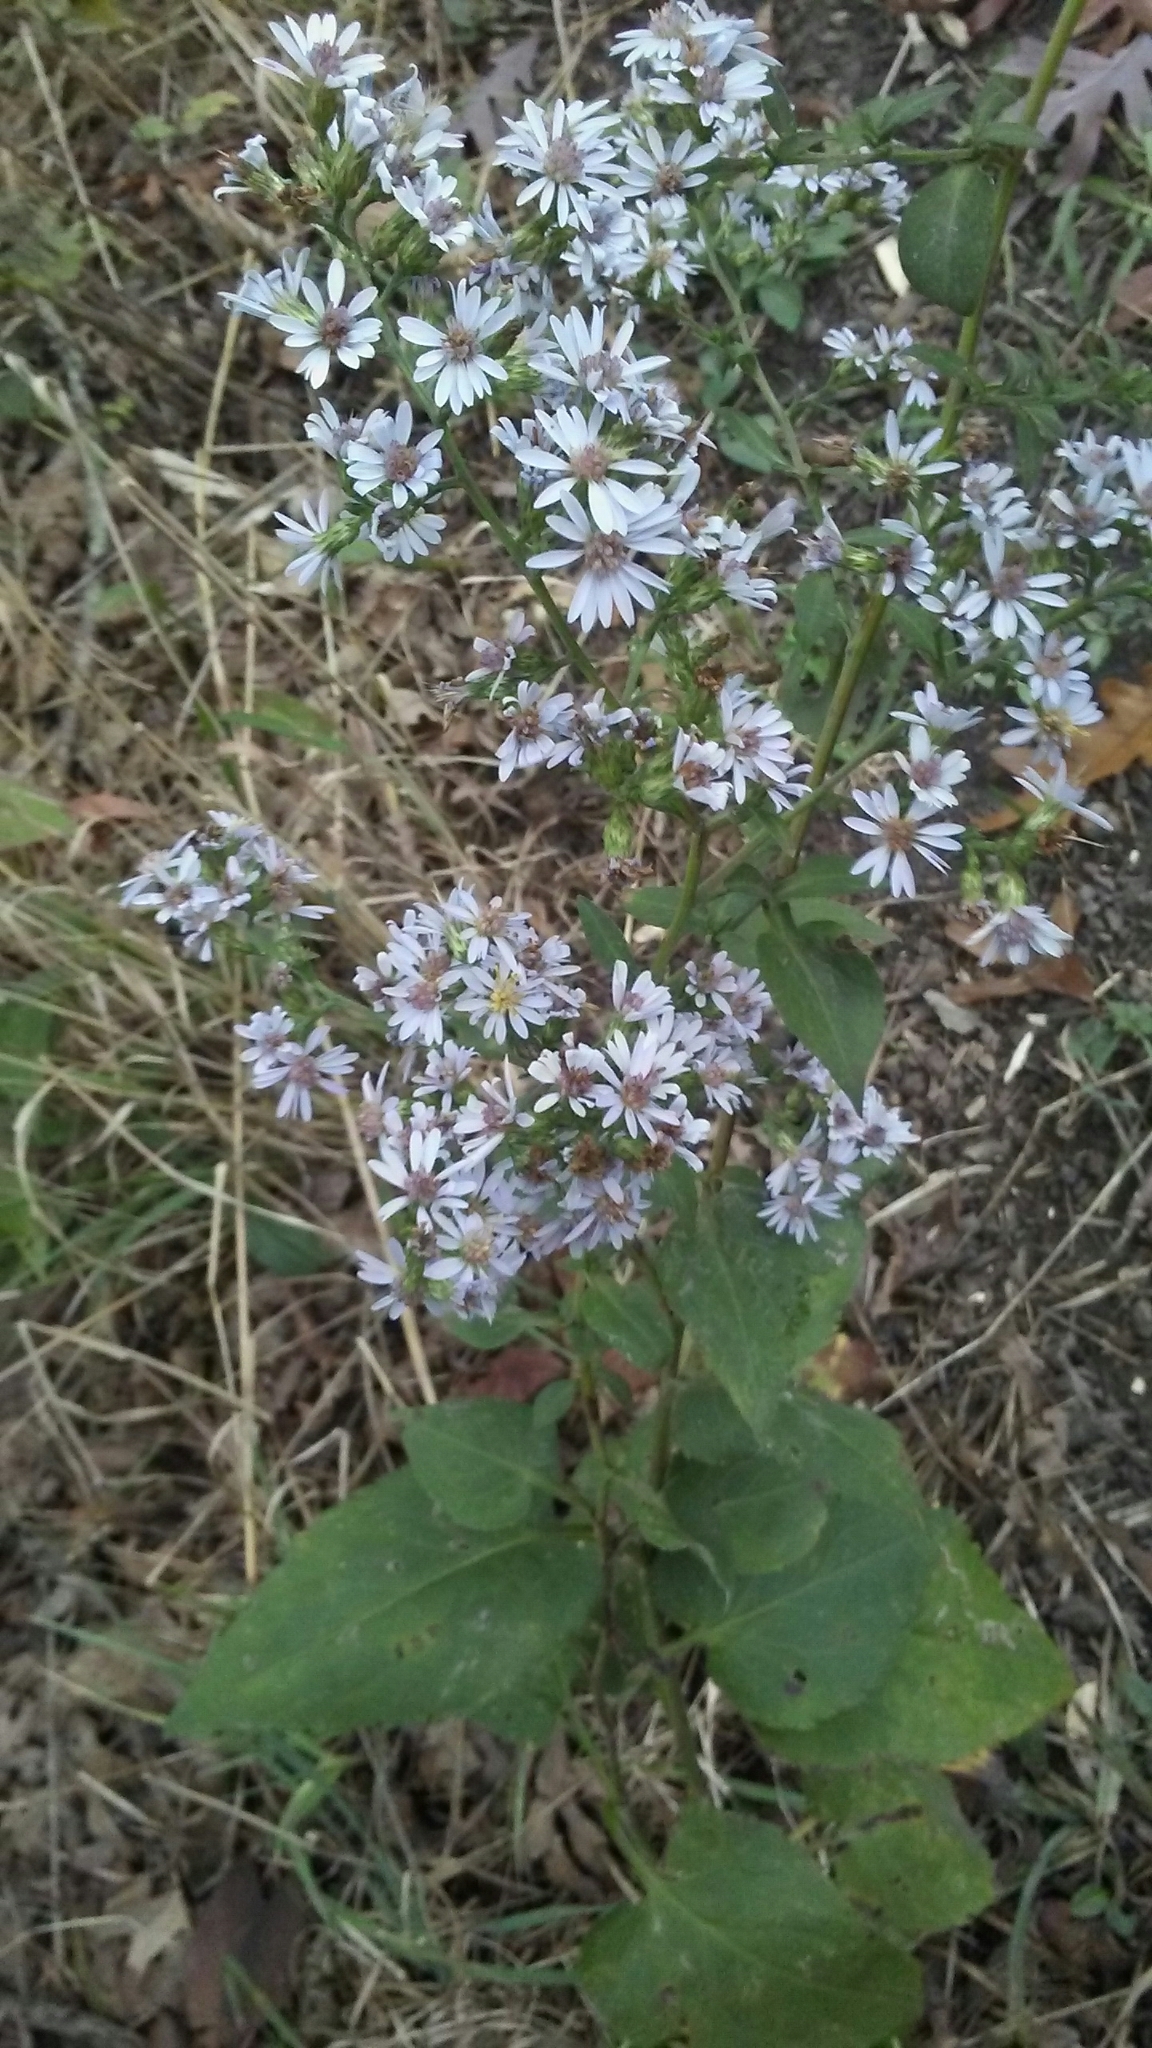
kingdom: Plantae
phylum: Tracheophyta
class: Magnoliopsida
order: Asterales
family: Asteraceae
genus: Symphyotrichum
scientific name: Symphyotrichum drummondii
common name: Drummond's aster
